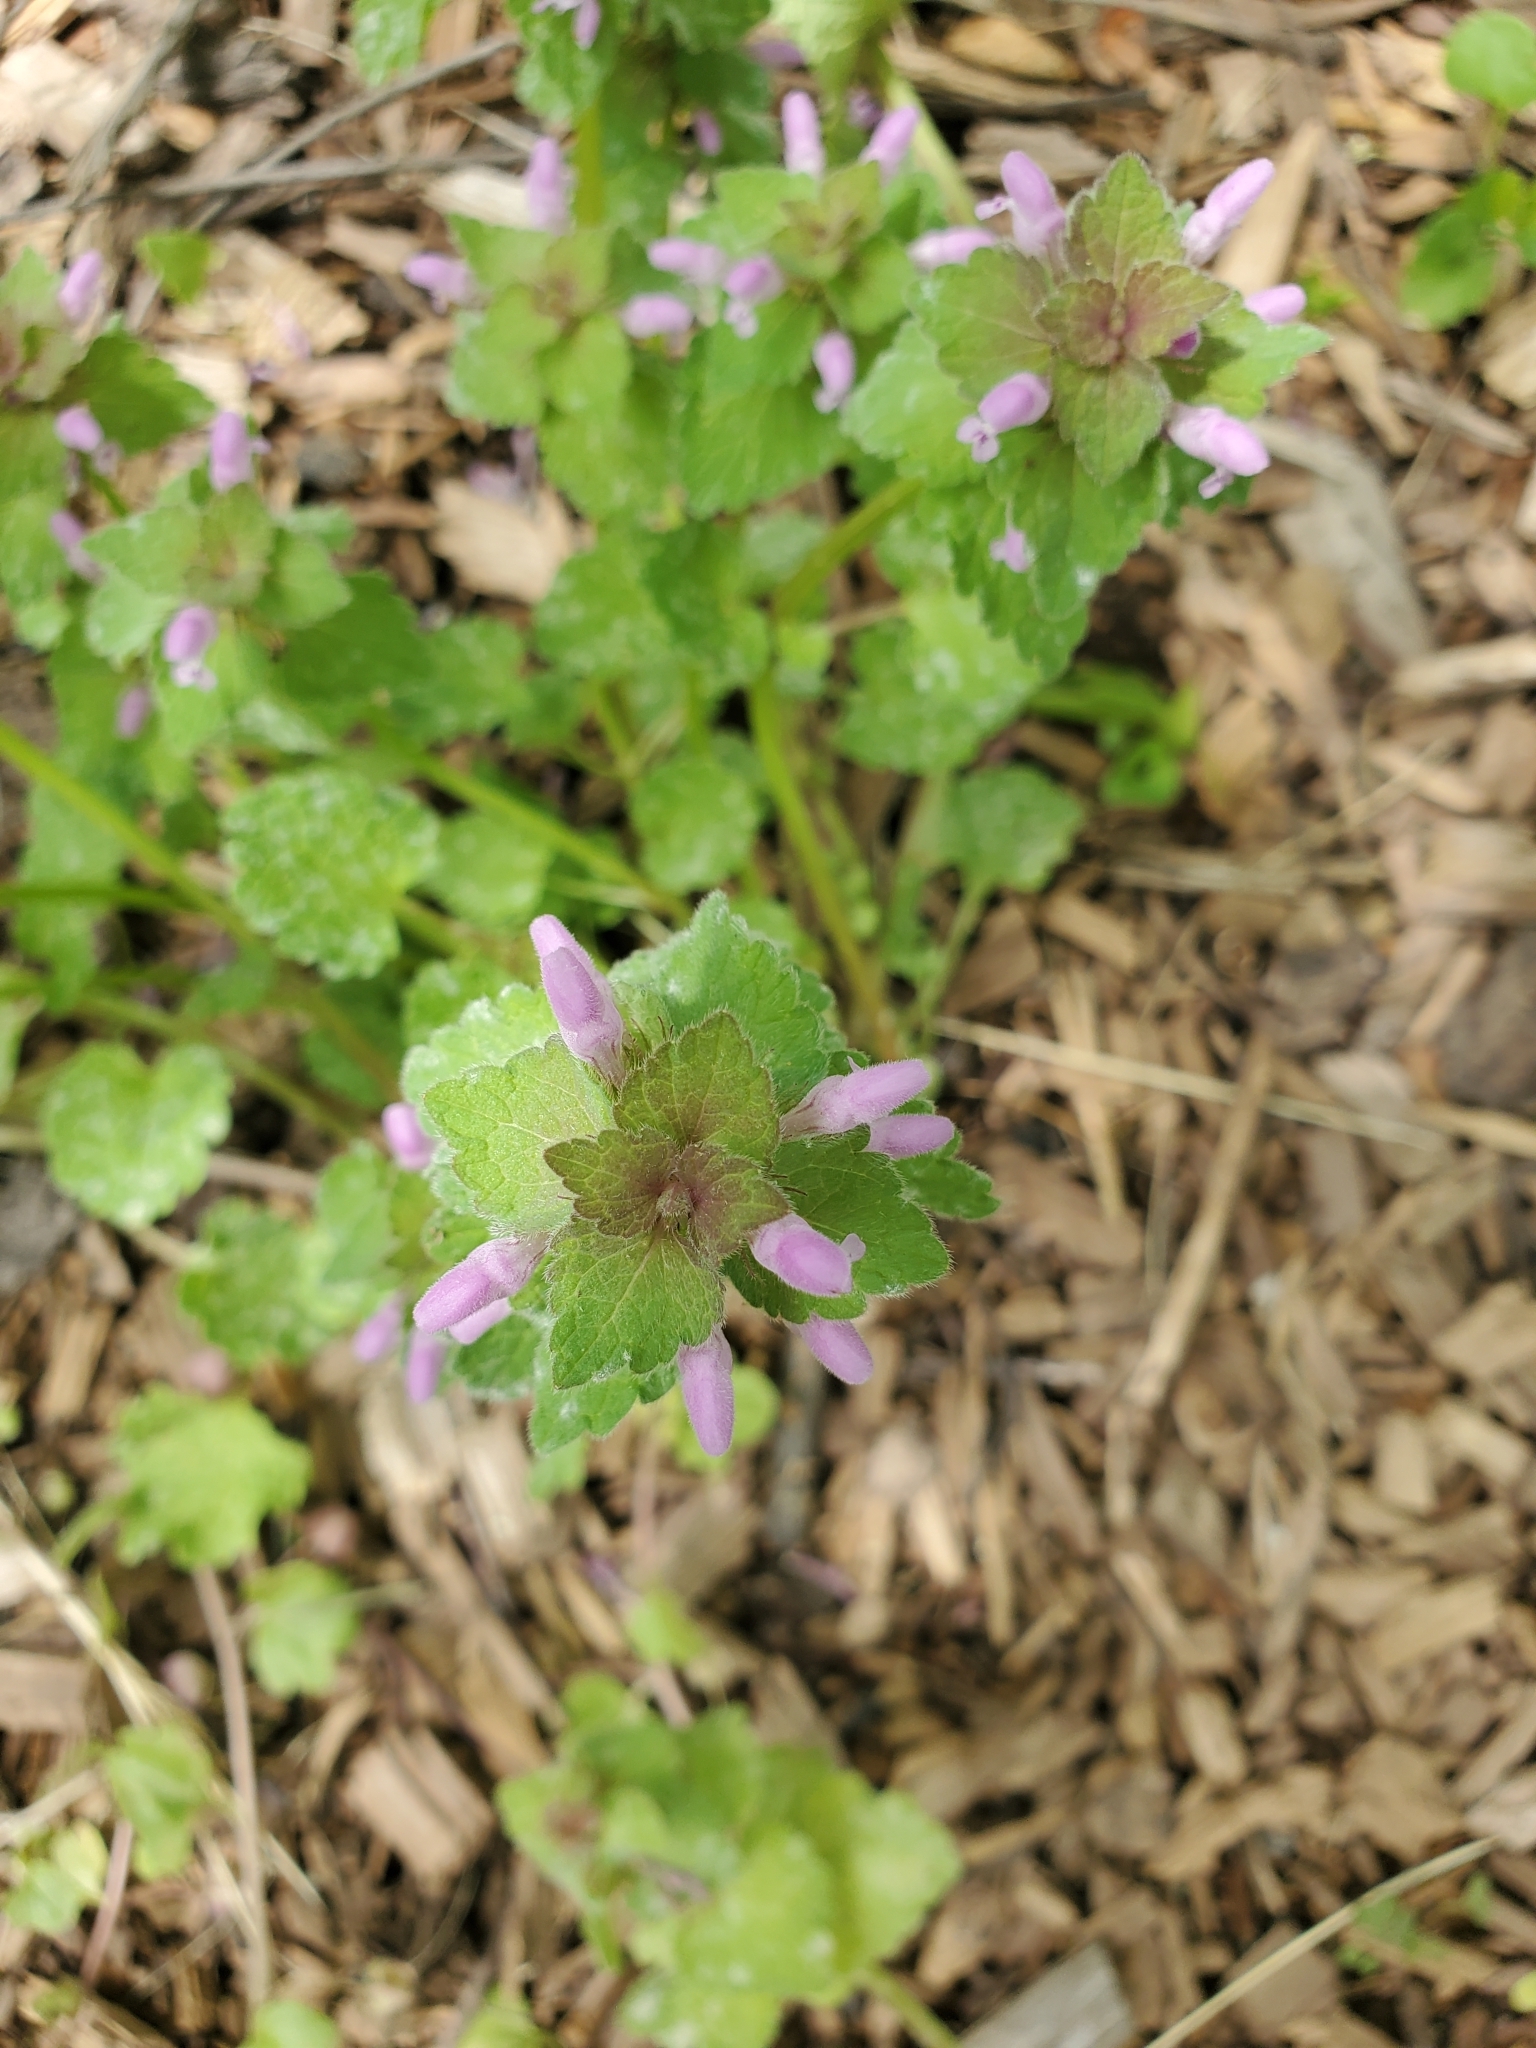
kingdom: Plantae
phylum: Tracheophyta
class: Magnoliopsida
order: Lamiales
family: Lamiaceae
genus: Lamium
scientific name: Lamium purpureum
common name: Red dead-nettle
